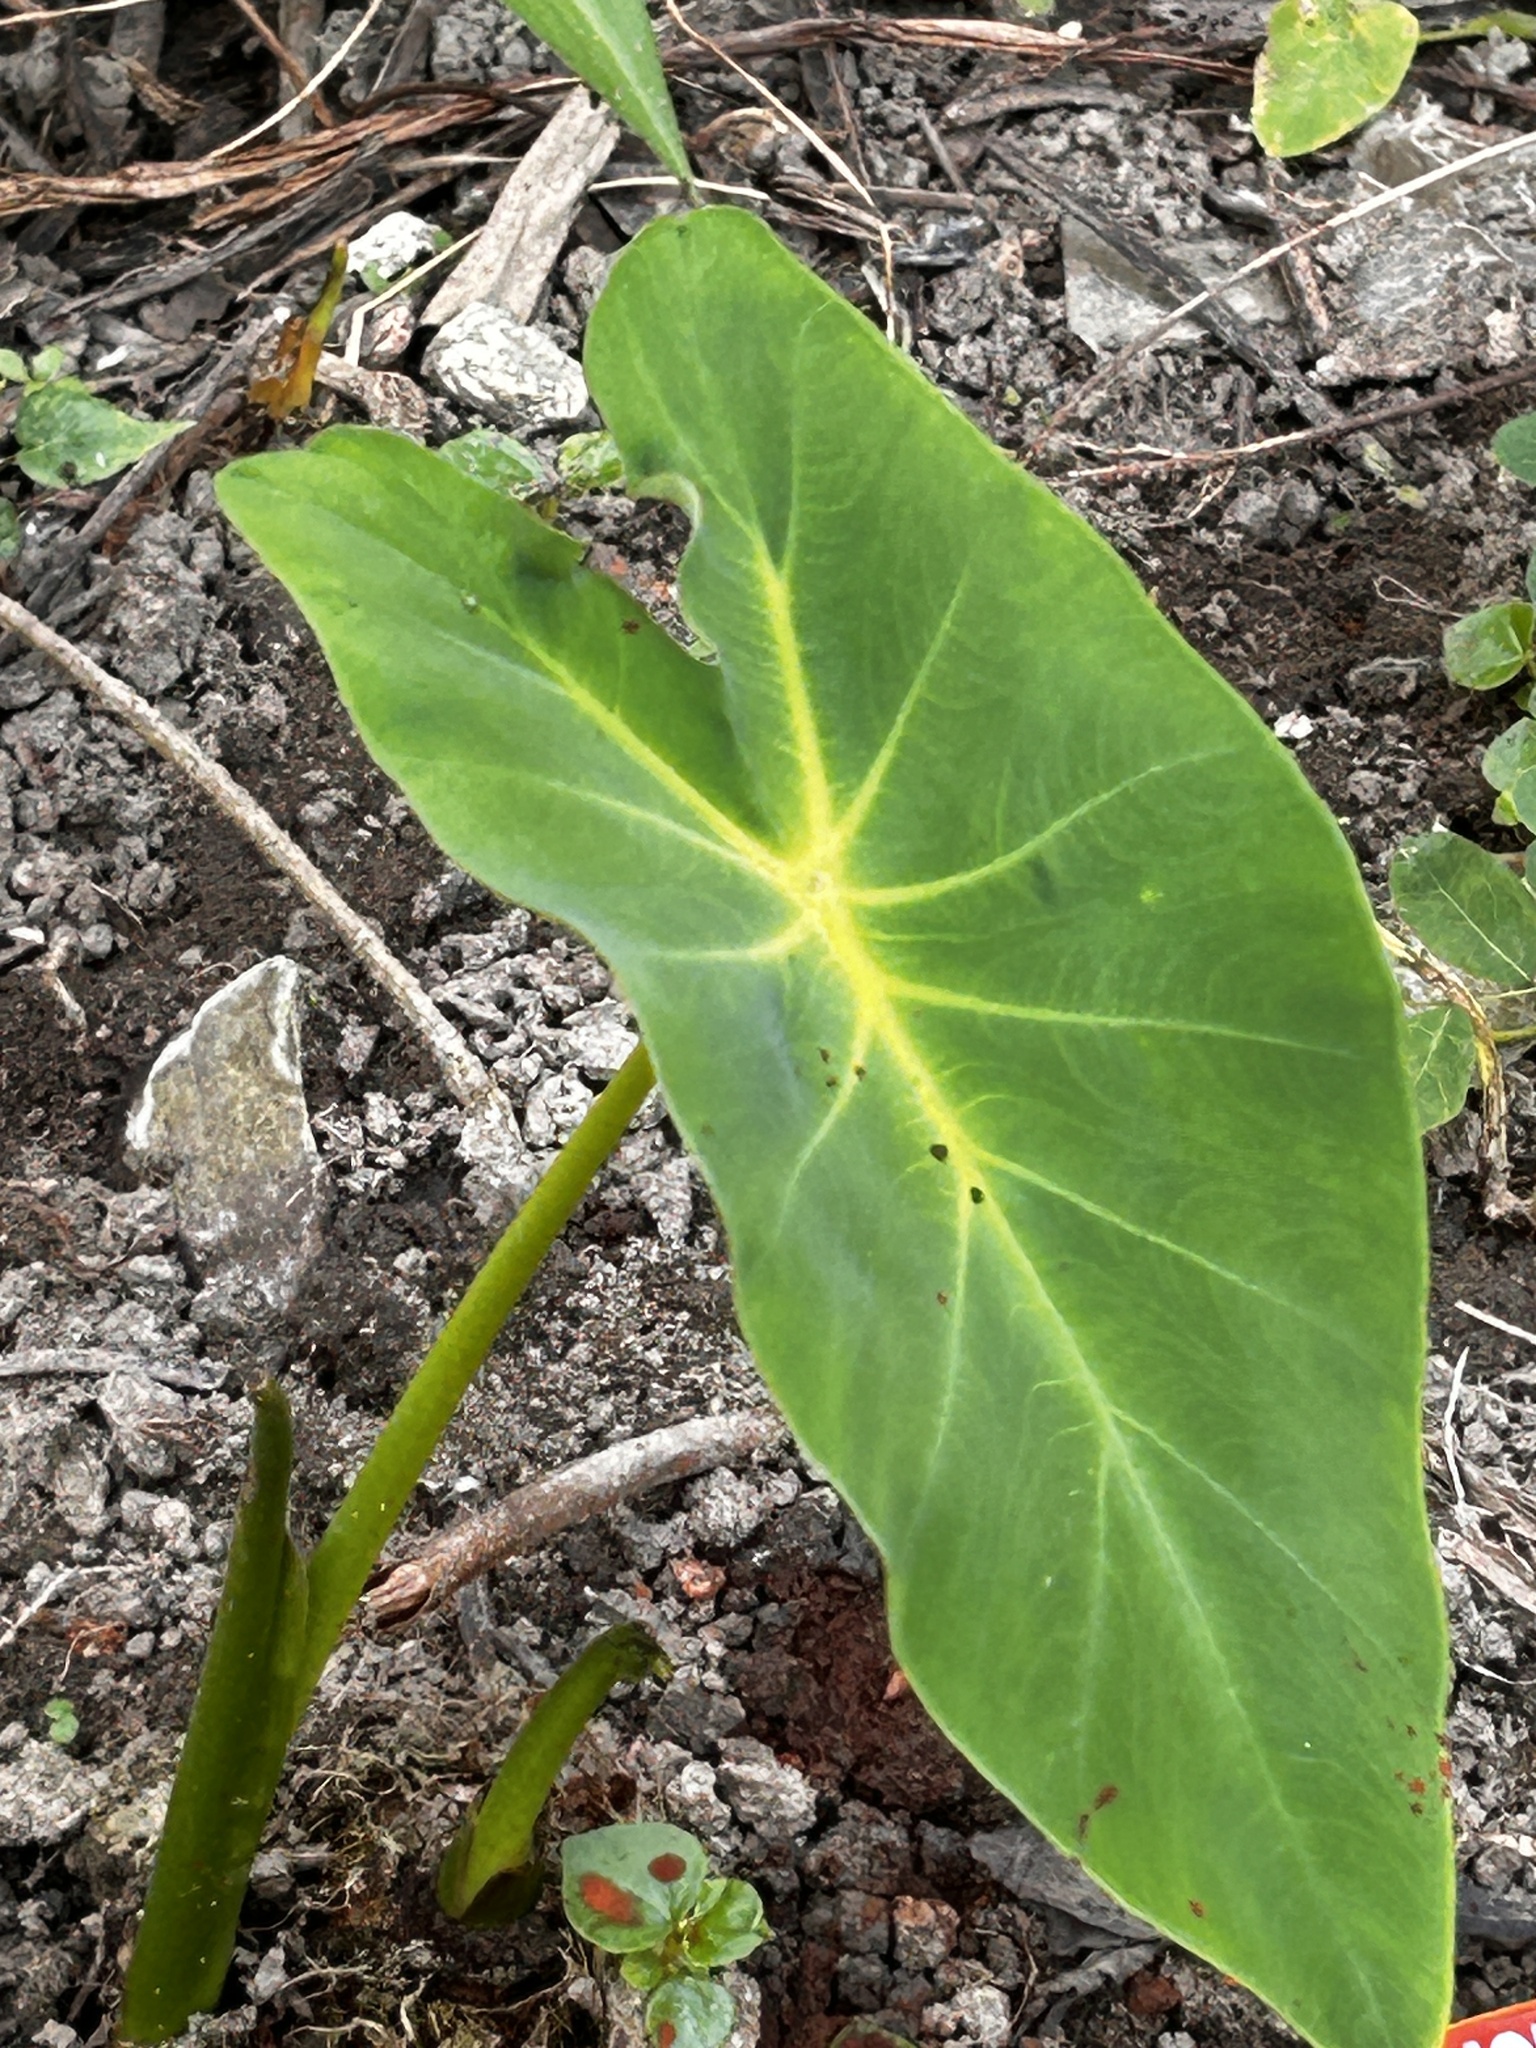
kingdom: Plantae
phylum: Tracheophyta
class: Liliopsida
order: Alismatales
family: Araceae
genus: Colocasia
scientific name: Colocasia esculenta
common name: Taro
